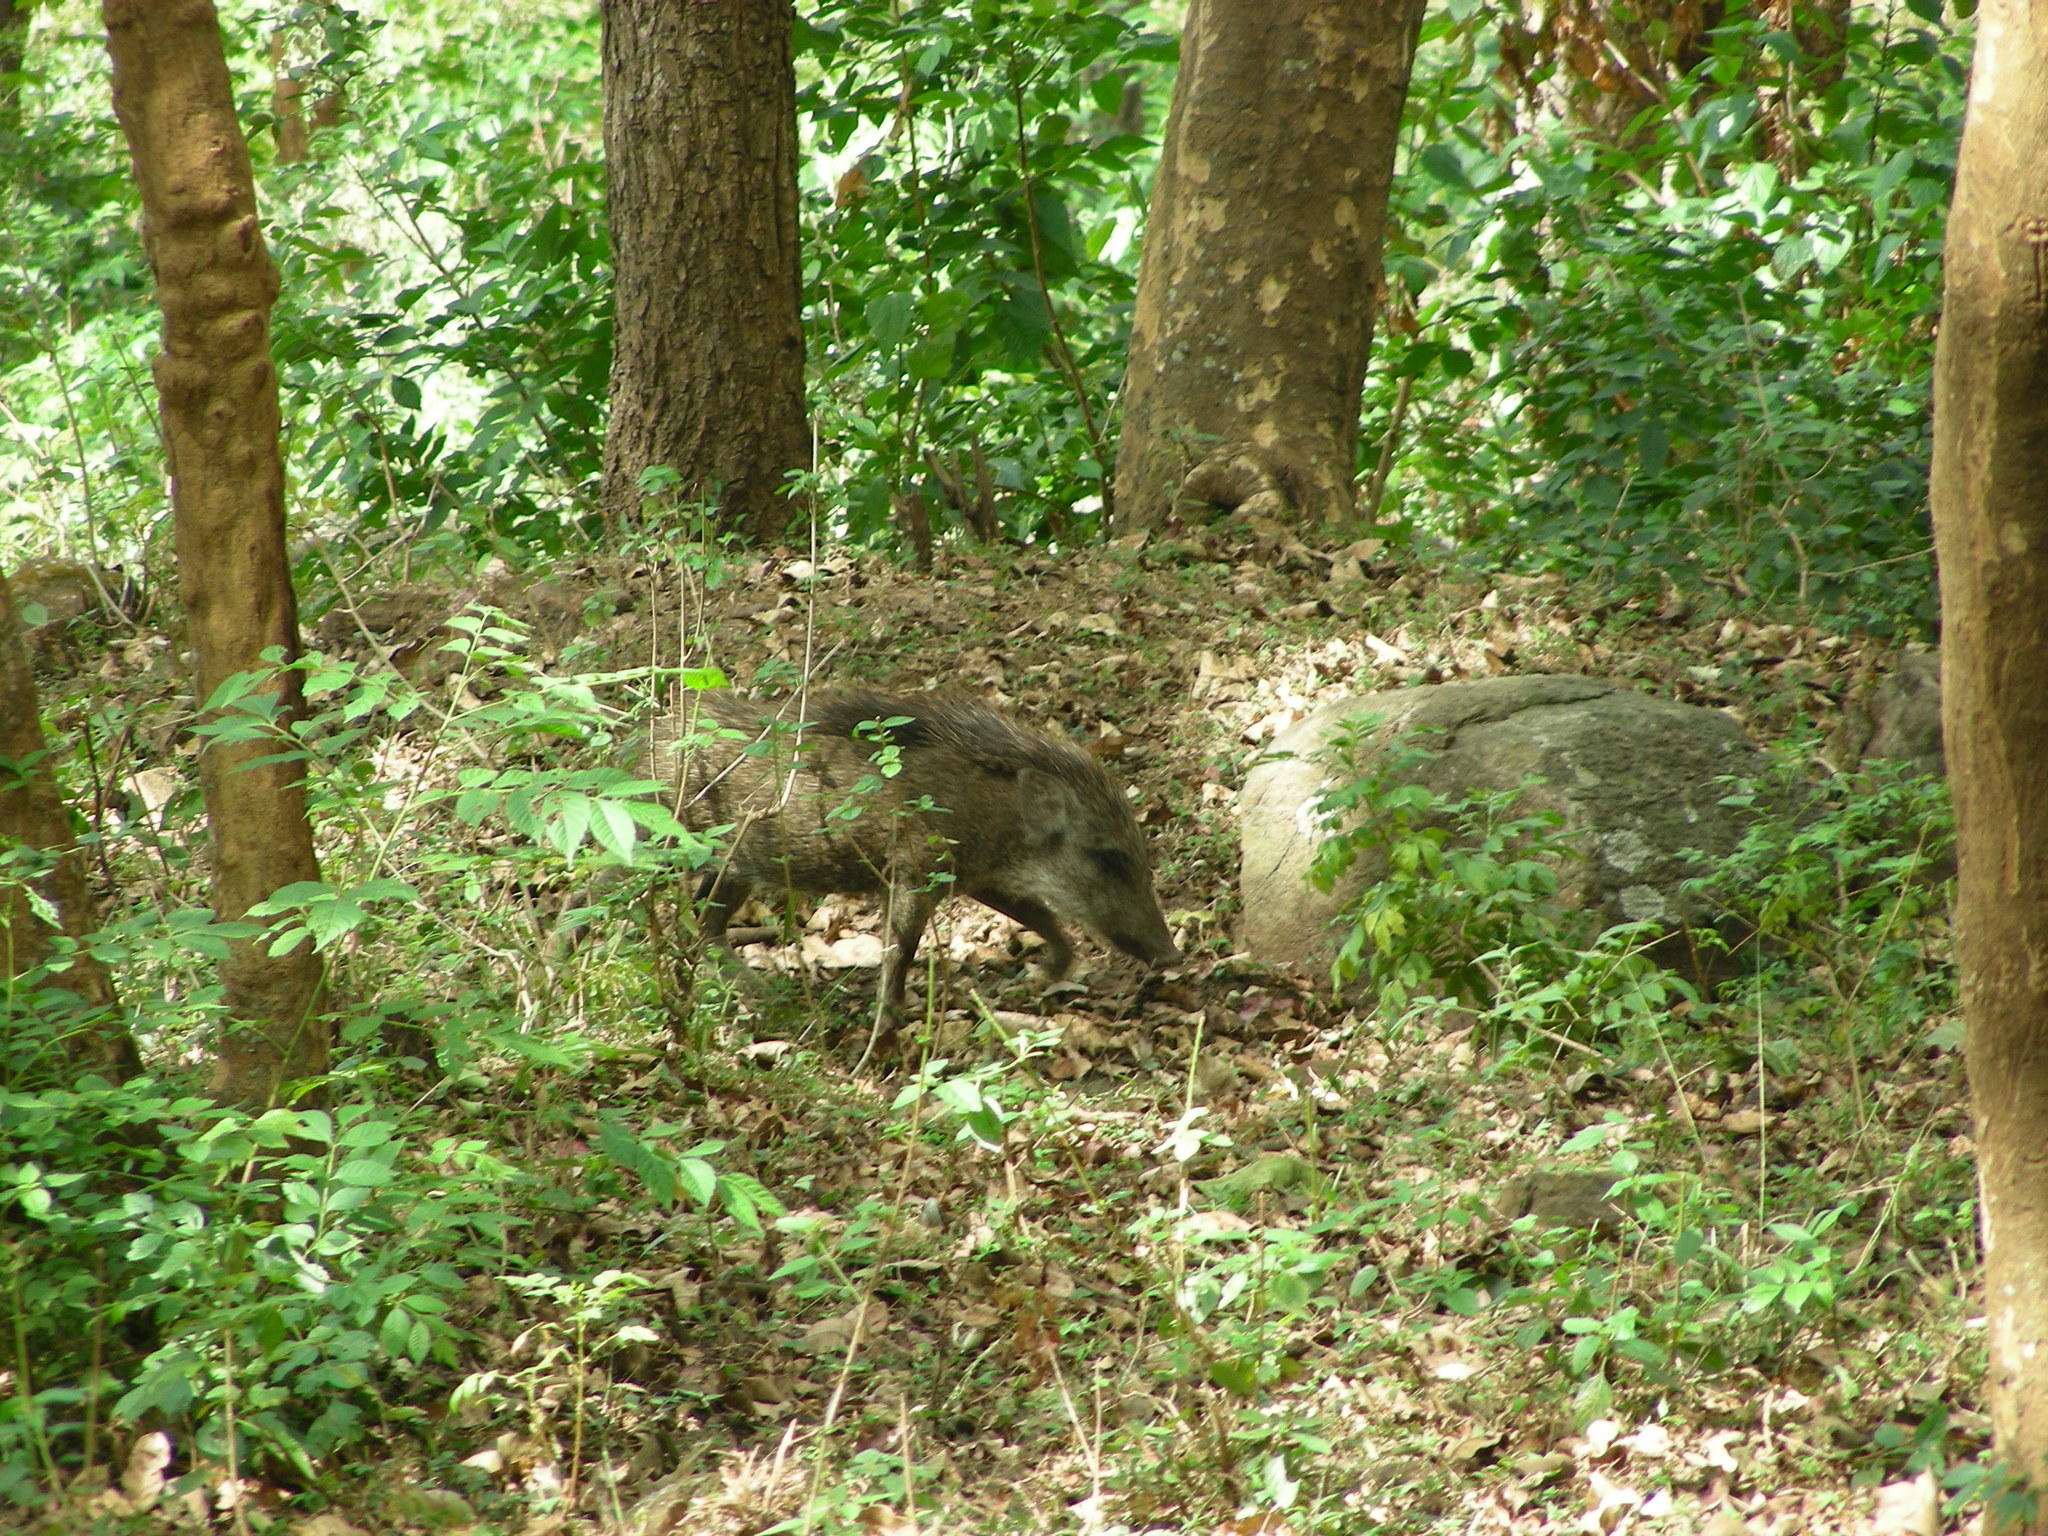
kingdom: Animalia
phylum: Chordata
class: Mammalia
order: Artiodactyla
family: Suidae
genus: Sus
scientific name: Sus scrofa
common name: Wild boar
